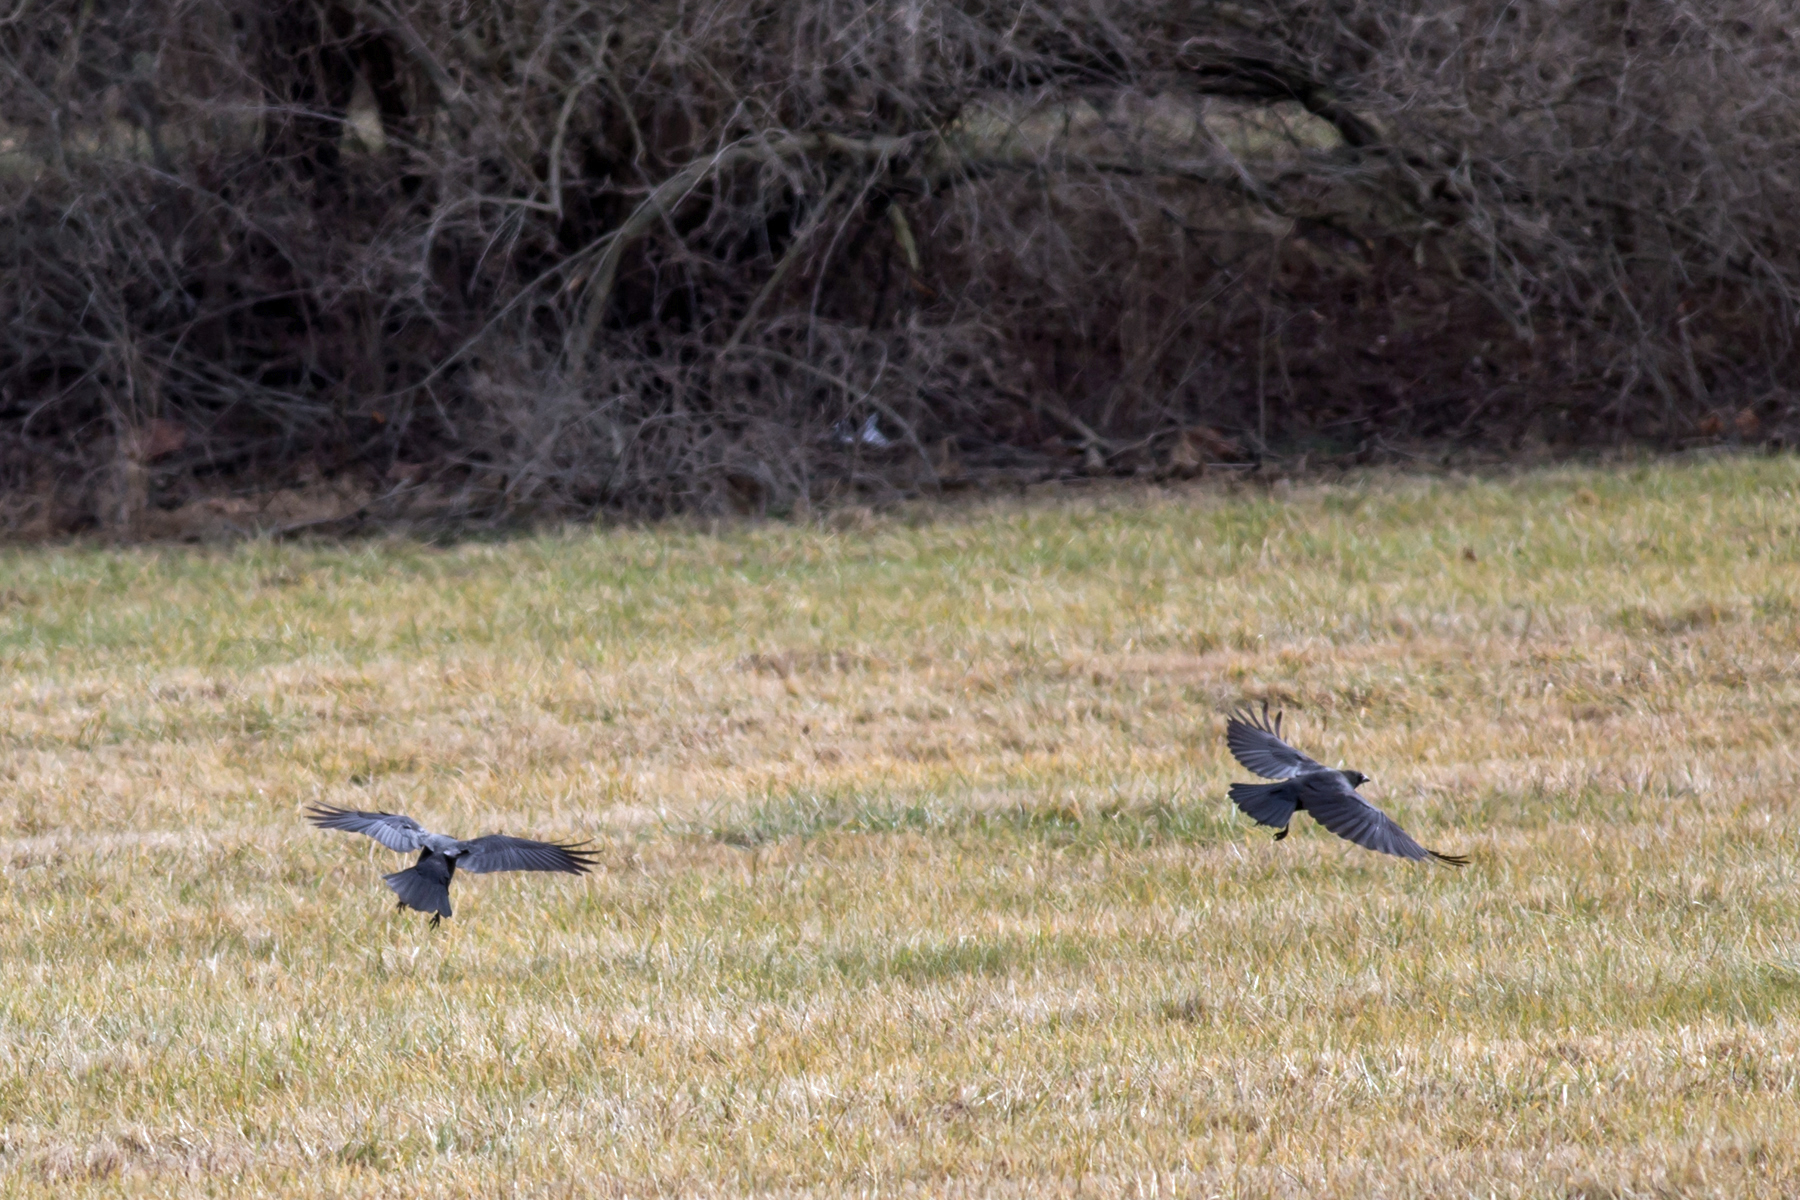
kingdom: Animalia
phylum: Chordata
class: Aves
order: Passeriformes
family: Corvidae
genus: Corvus
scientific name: Corvus brachyrhynchos
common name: American crow
